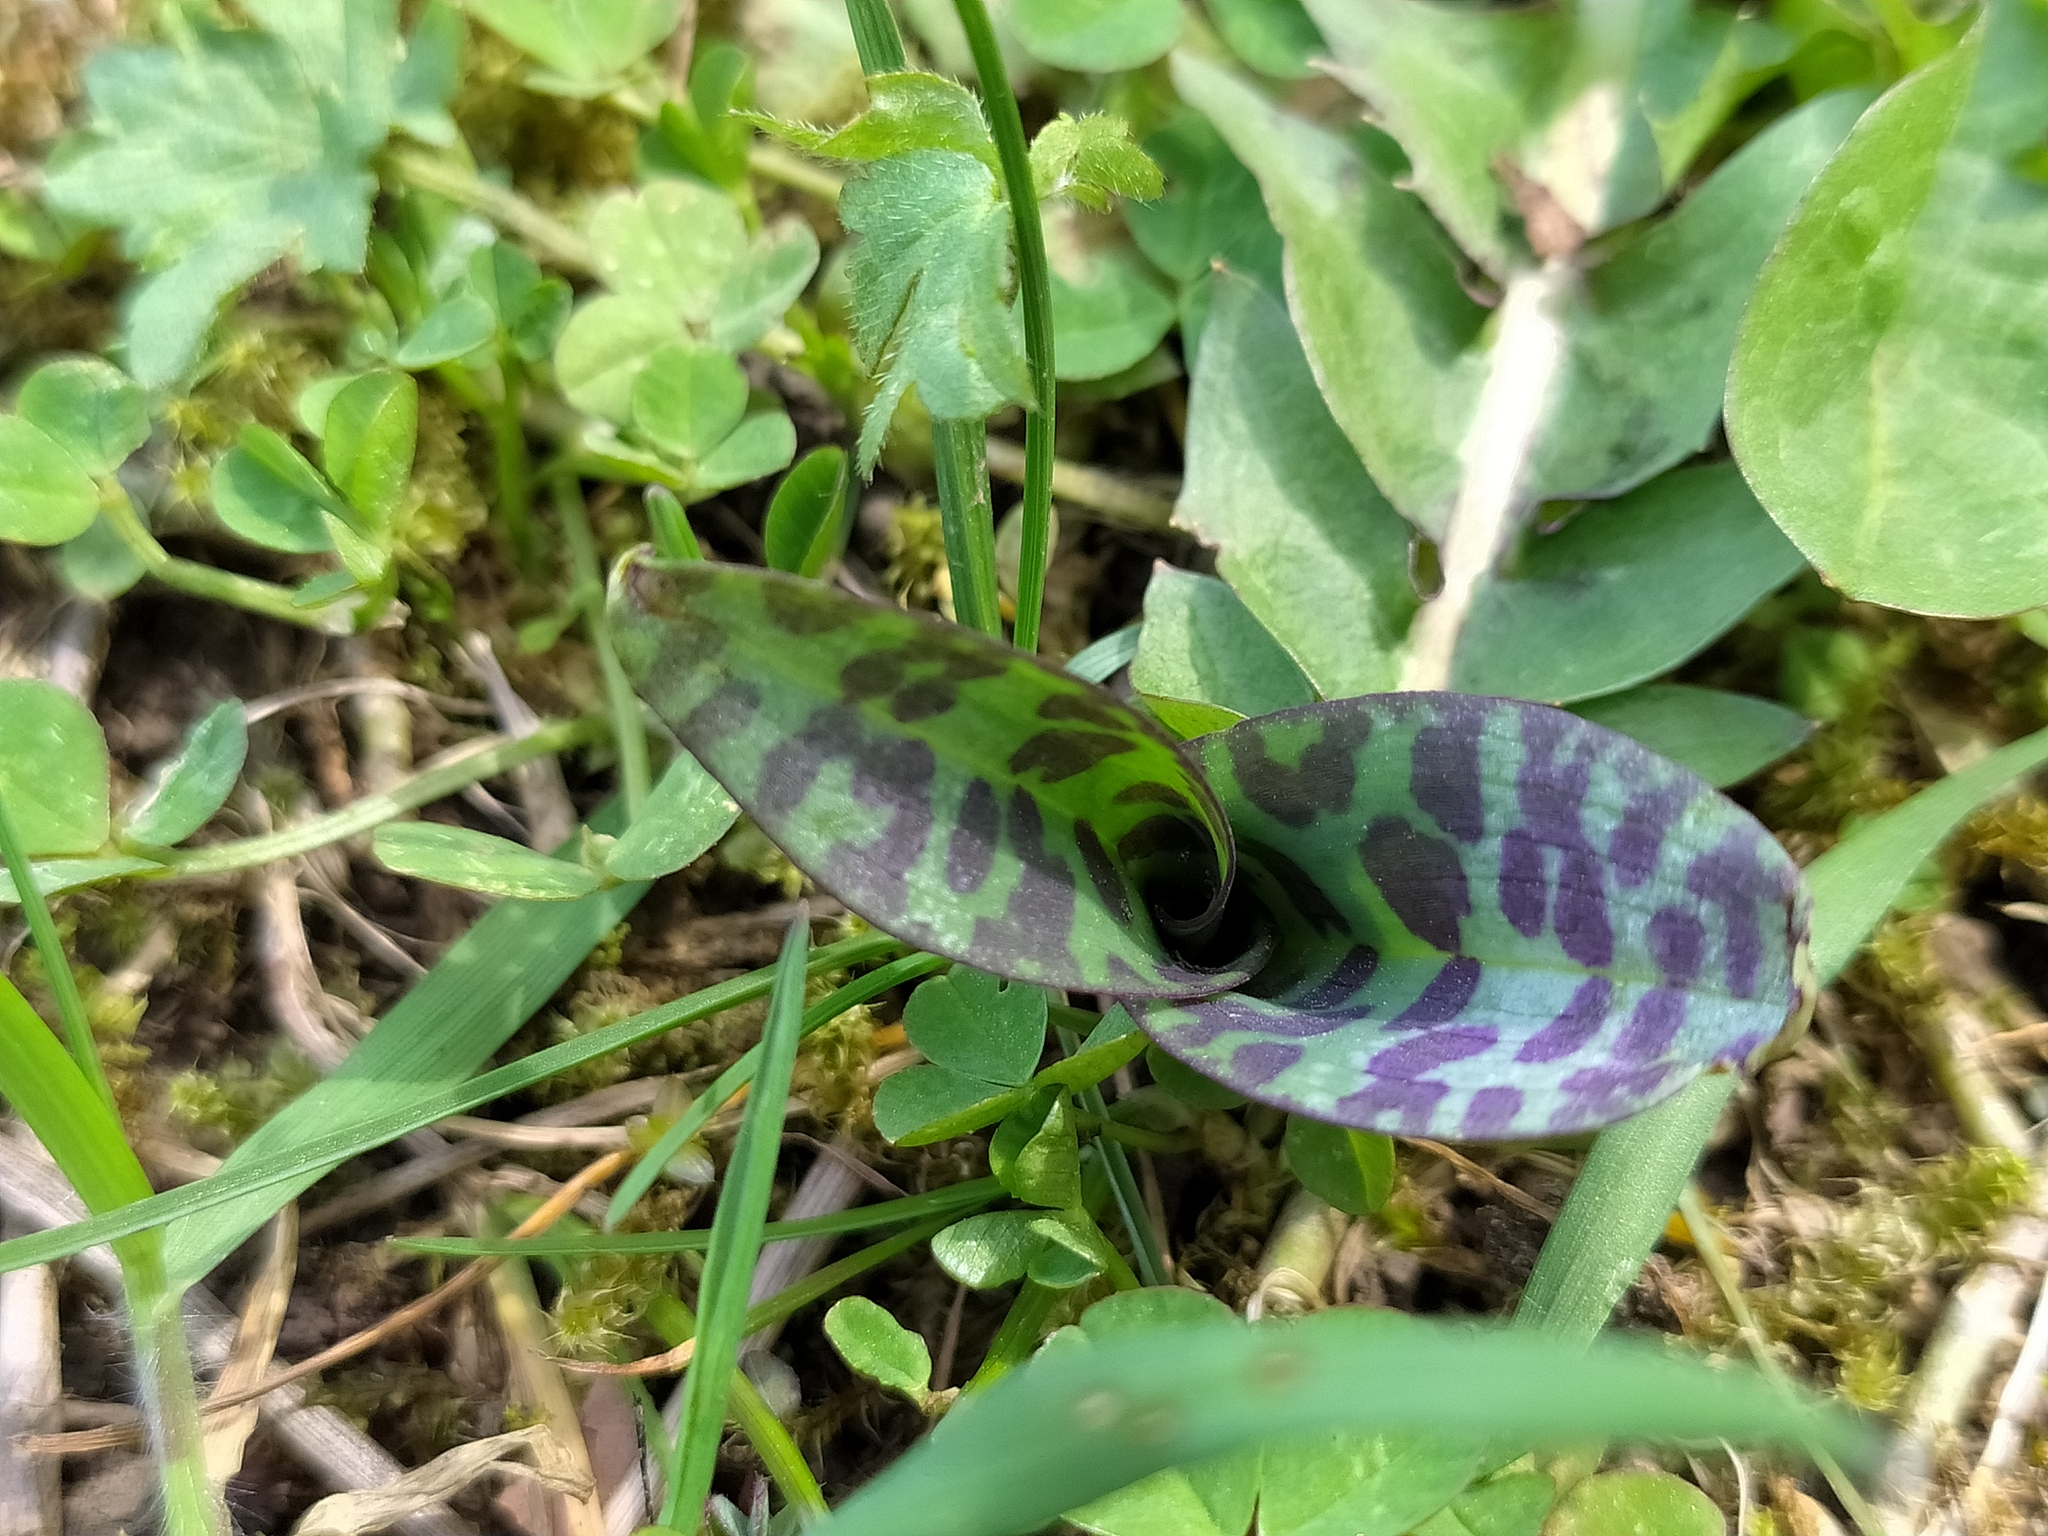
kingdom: Plantae
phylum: Tracheophyta
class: Liliopsida
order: Asparagales
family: Orchidaceae
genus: Dactylorhiza
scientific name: Dactylorhiza maculata
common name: Heath spotted-orchid
